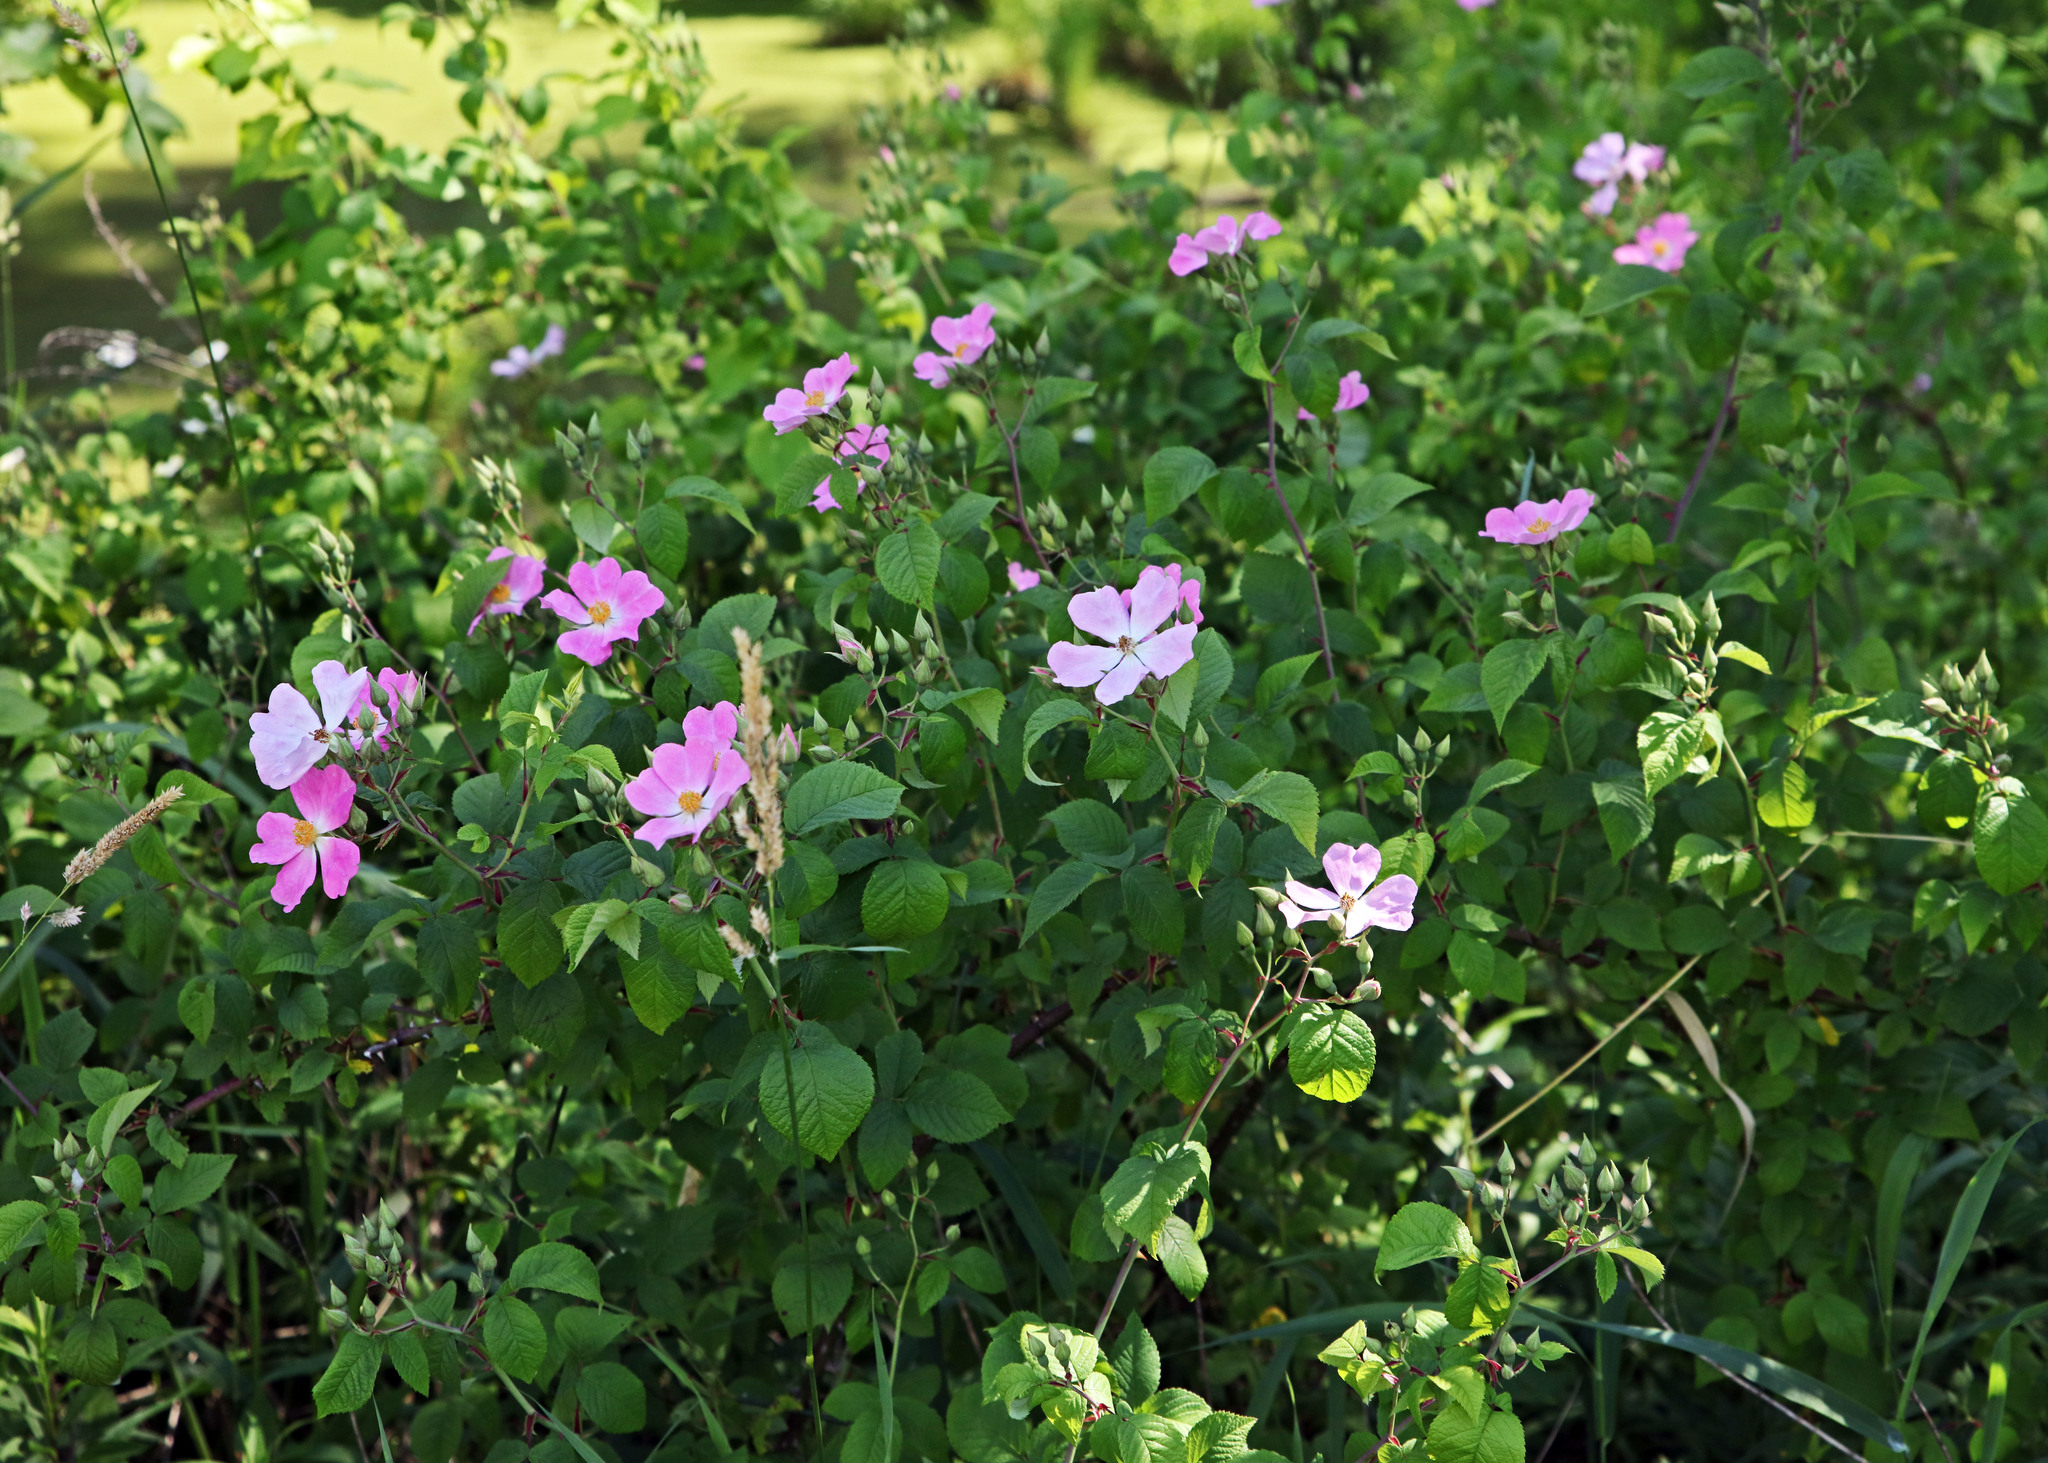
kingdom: Plantae
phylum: Tracheophyta
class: Magnoliopsida
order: Rosales
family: Rosaceae
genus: Rosa
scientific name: Rosa setigera
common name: Prairie rose
